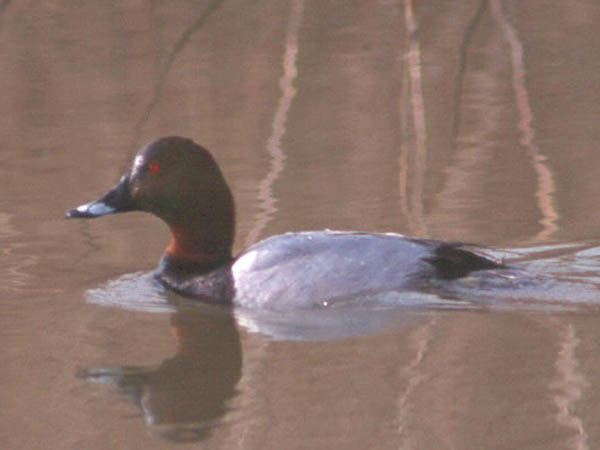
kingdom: Animalia
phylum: Chordata
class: Aves
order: Anseriformes
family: Anatidae
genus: Aythya
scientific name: Aythya ferina
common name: Common pochard
